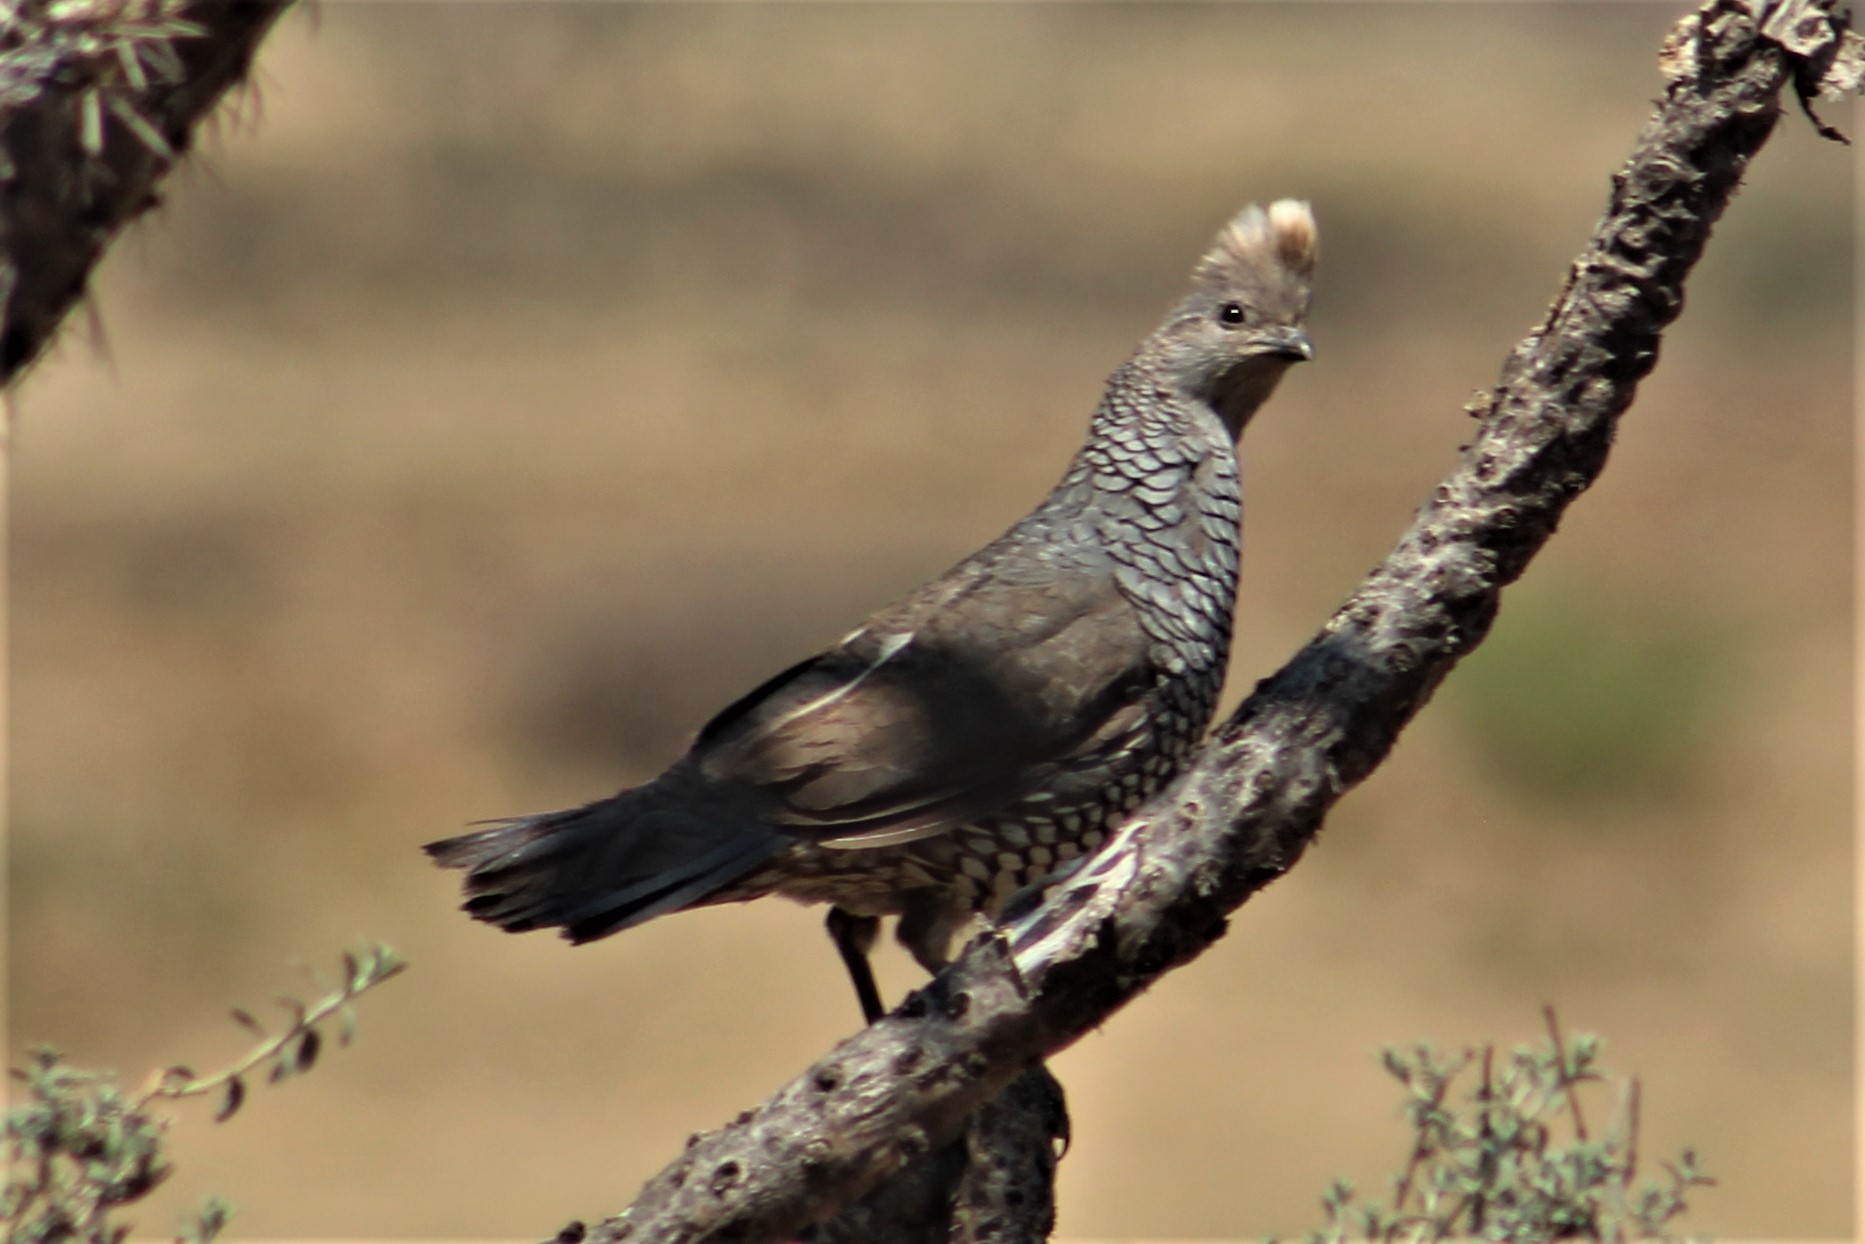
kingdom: Animalia
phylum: Chordata
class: Aves
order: Galliformes
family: Odontophoridae
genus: Callipepla
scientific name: Callipepla squamata
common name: Scaled quail
